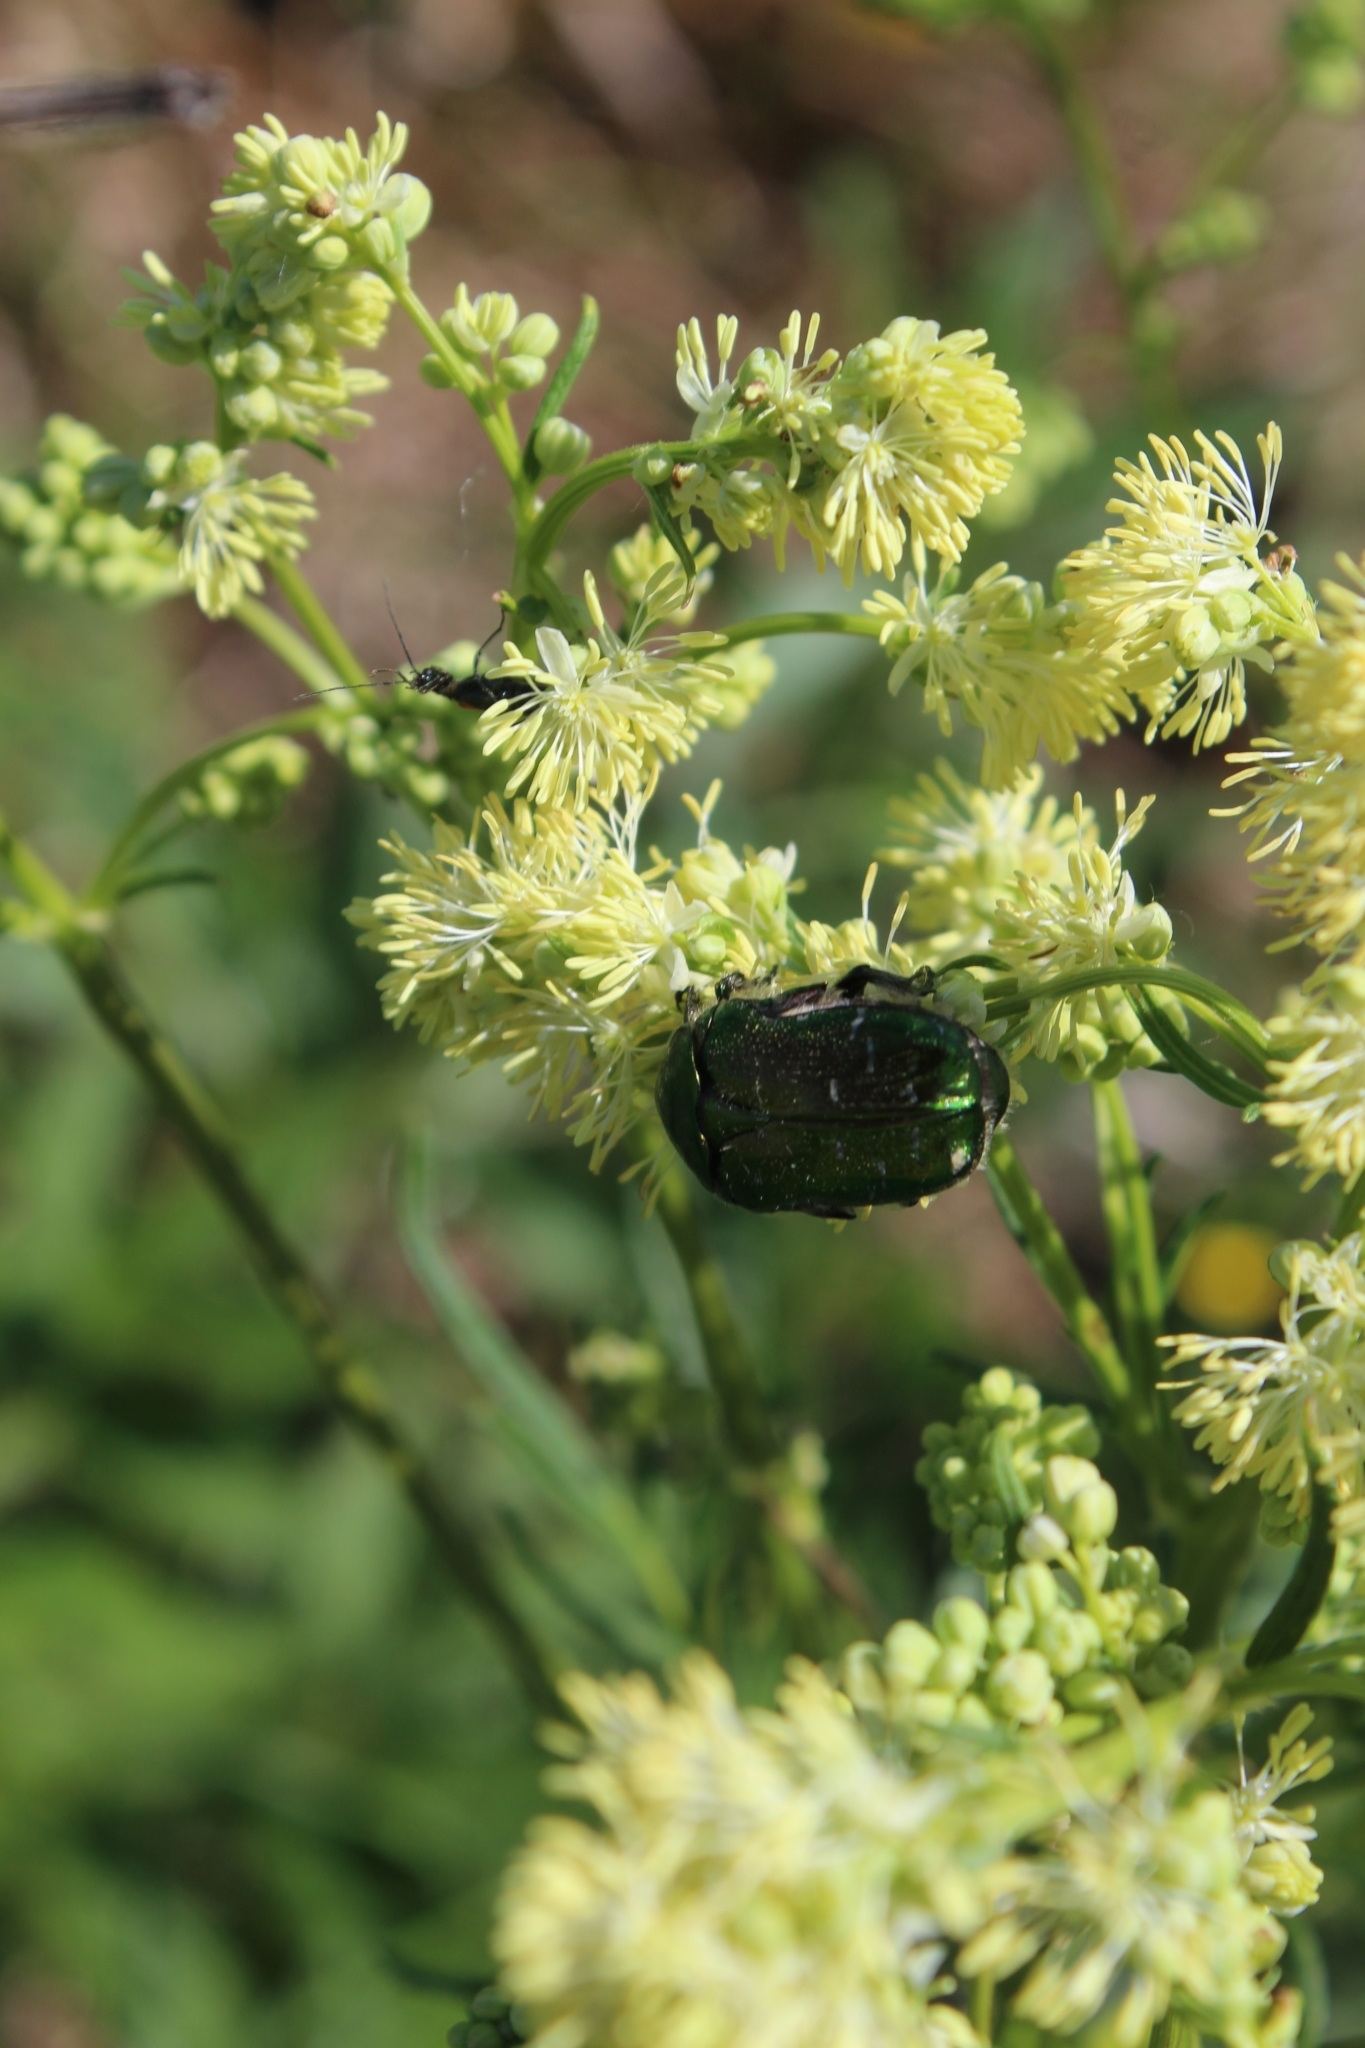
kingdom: Animalia
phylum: Arthropoda
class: Insecta
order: Coleoptera
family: Scarabaeidae
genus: Cetonia
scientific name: Cetonia aurata
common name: Rose chafer
